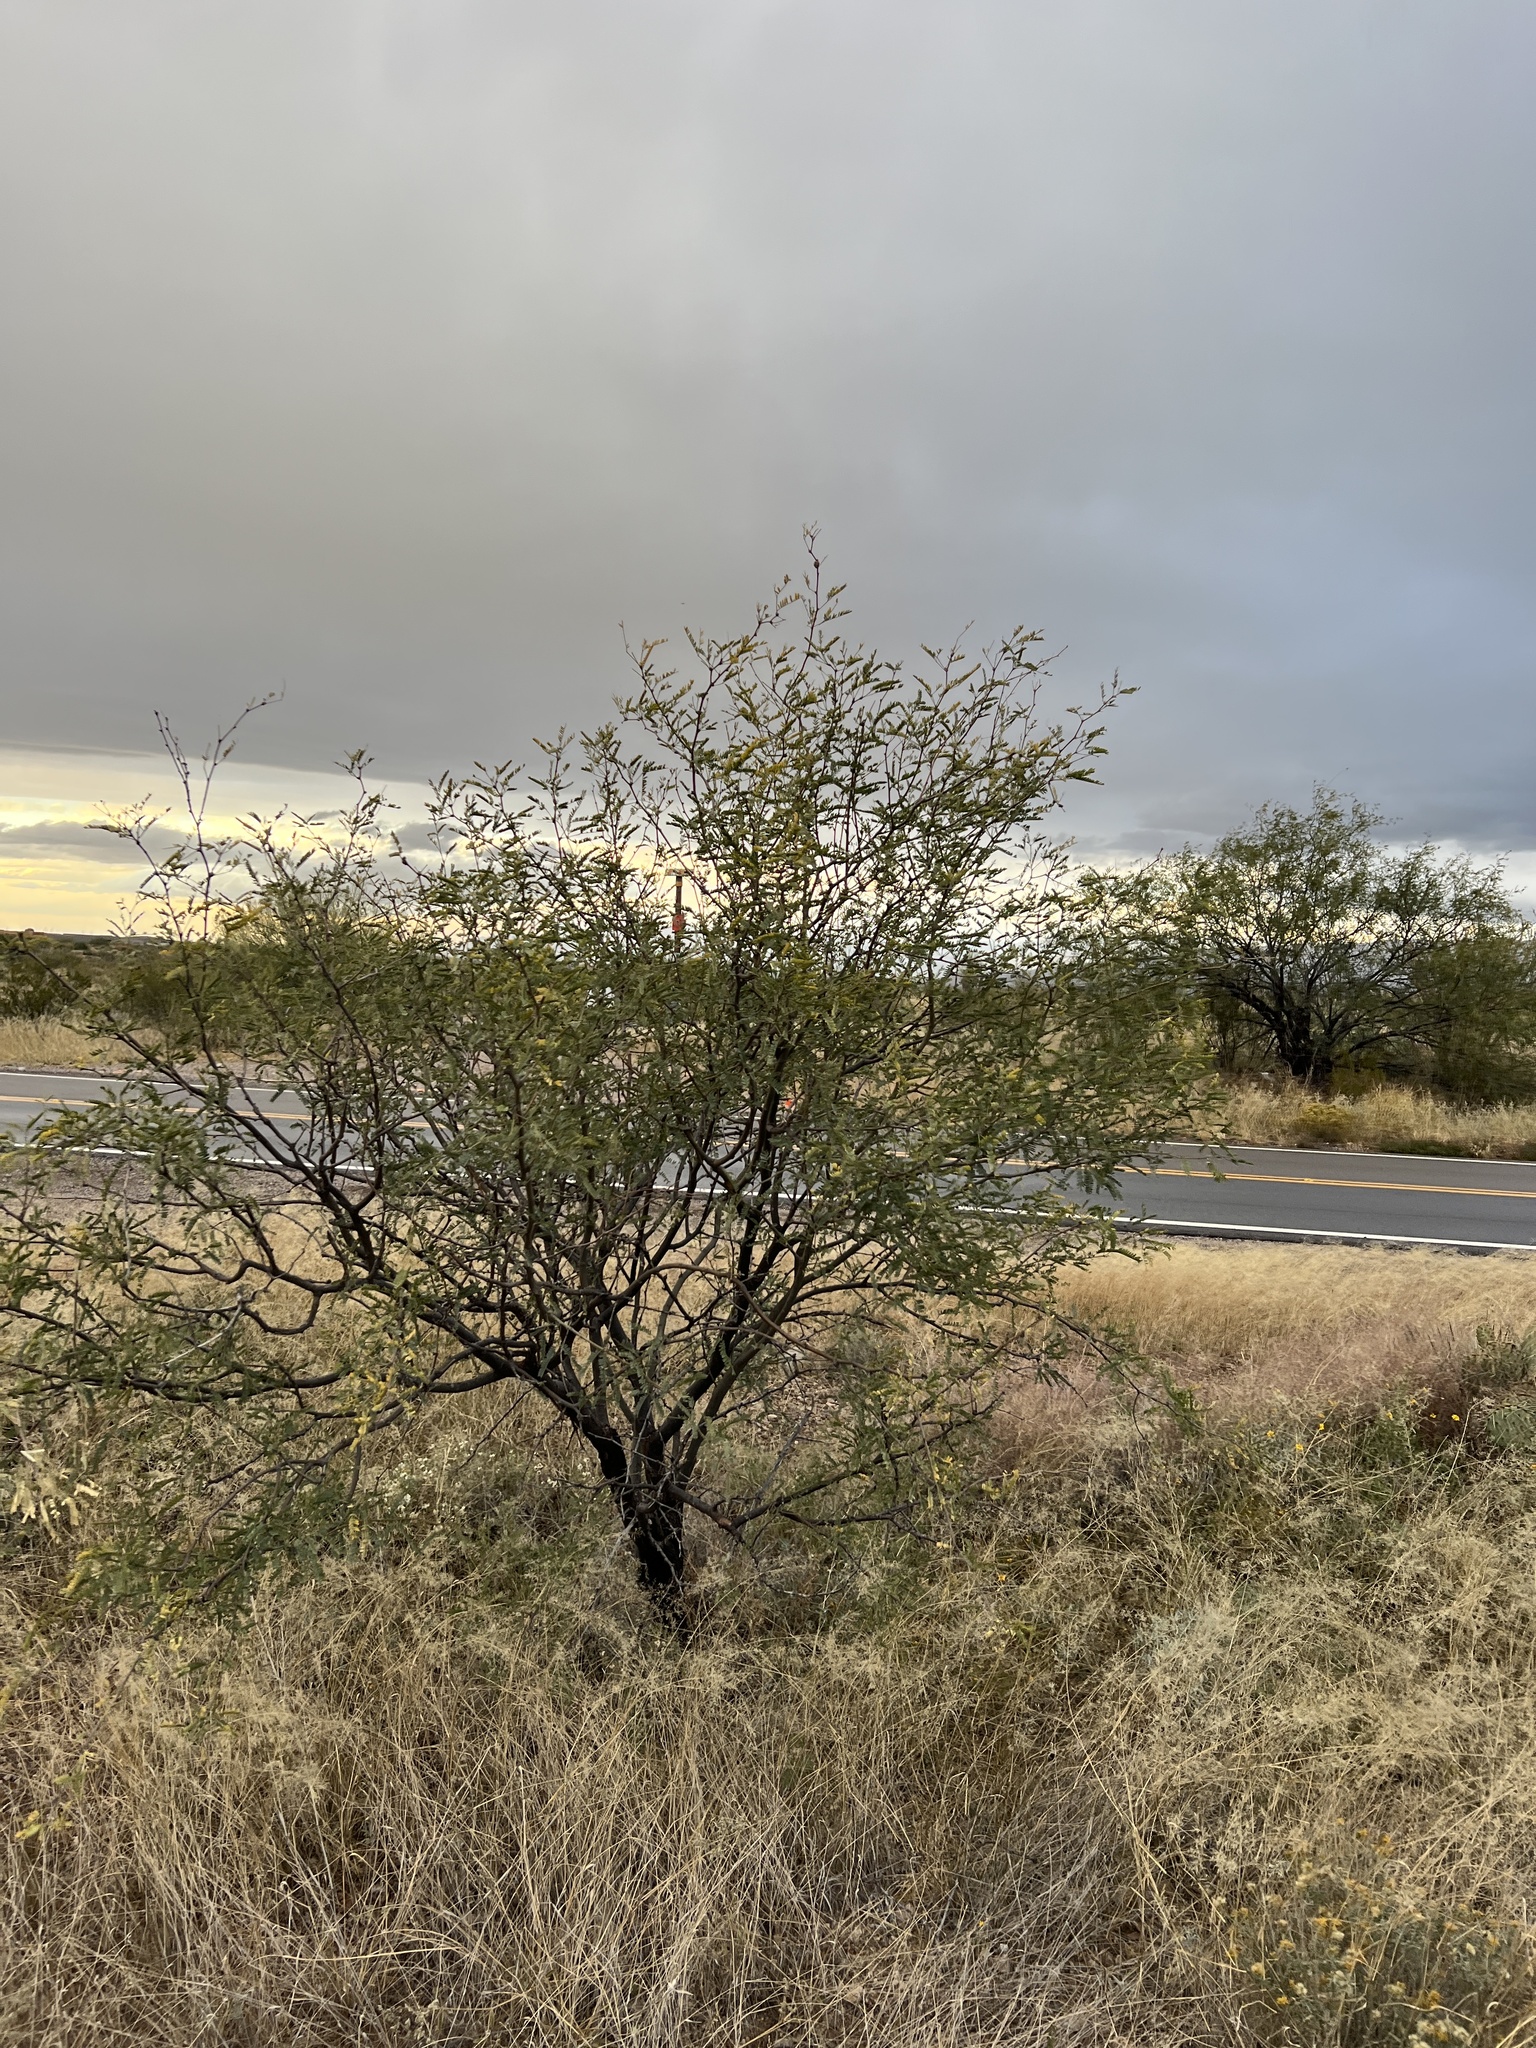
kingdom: Plantae
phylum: Tracheophyta
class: Magnoliopsida
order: Fabales
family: Fabaceae
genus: Prosopis
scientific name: Prosopis velutina
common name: Velvet mesquite
